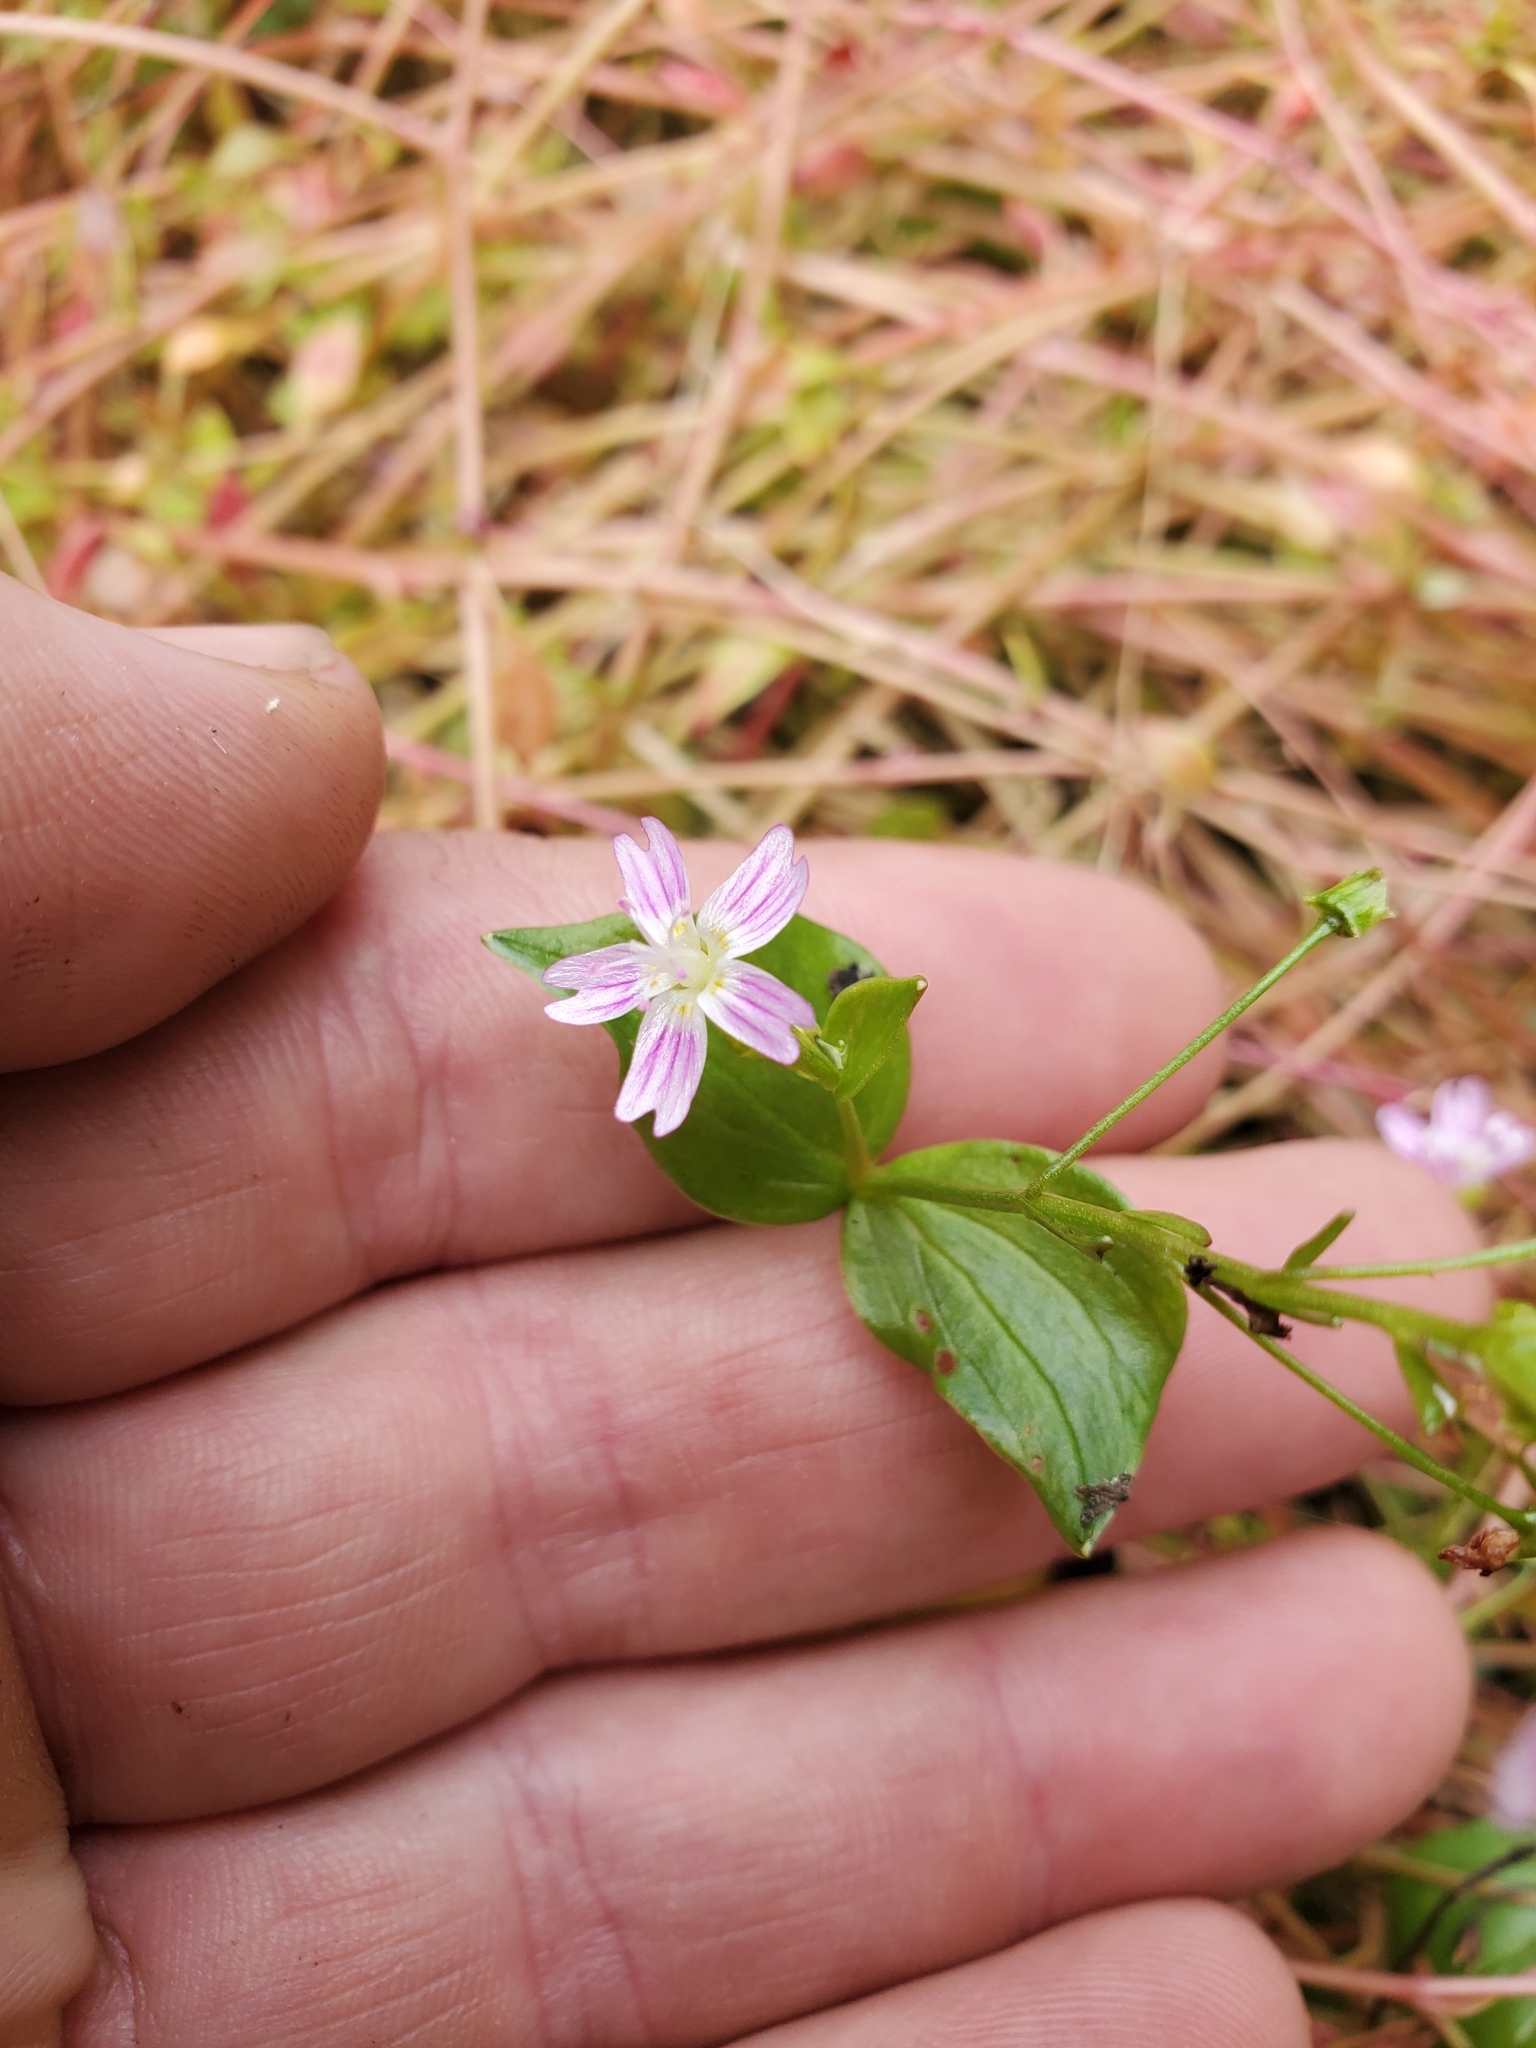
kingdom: Plantae
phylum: Tracheophyta
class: Magnoliopsida
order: Caryophyllales
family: Montiaceae
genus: Claytonia
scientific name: Claytonia sibirica
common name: Pink purslane
